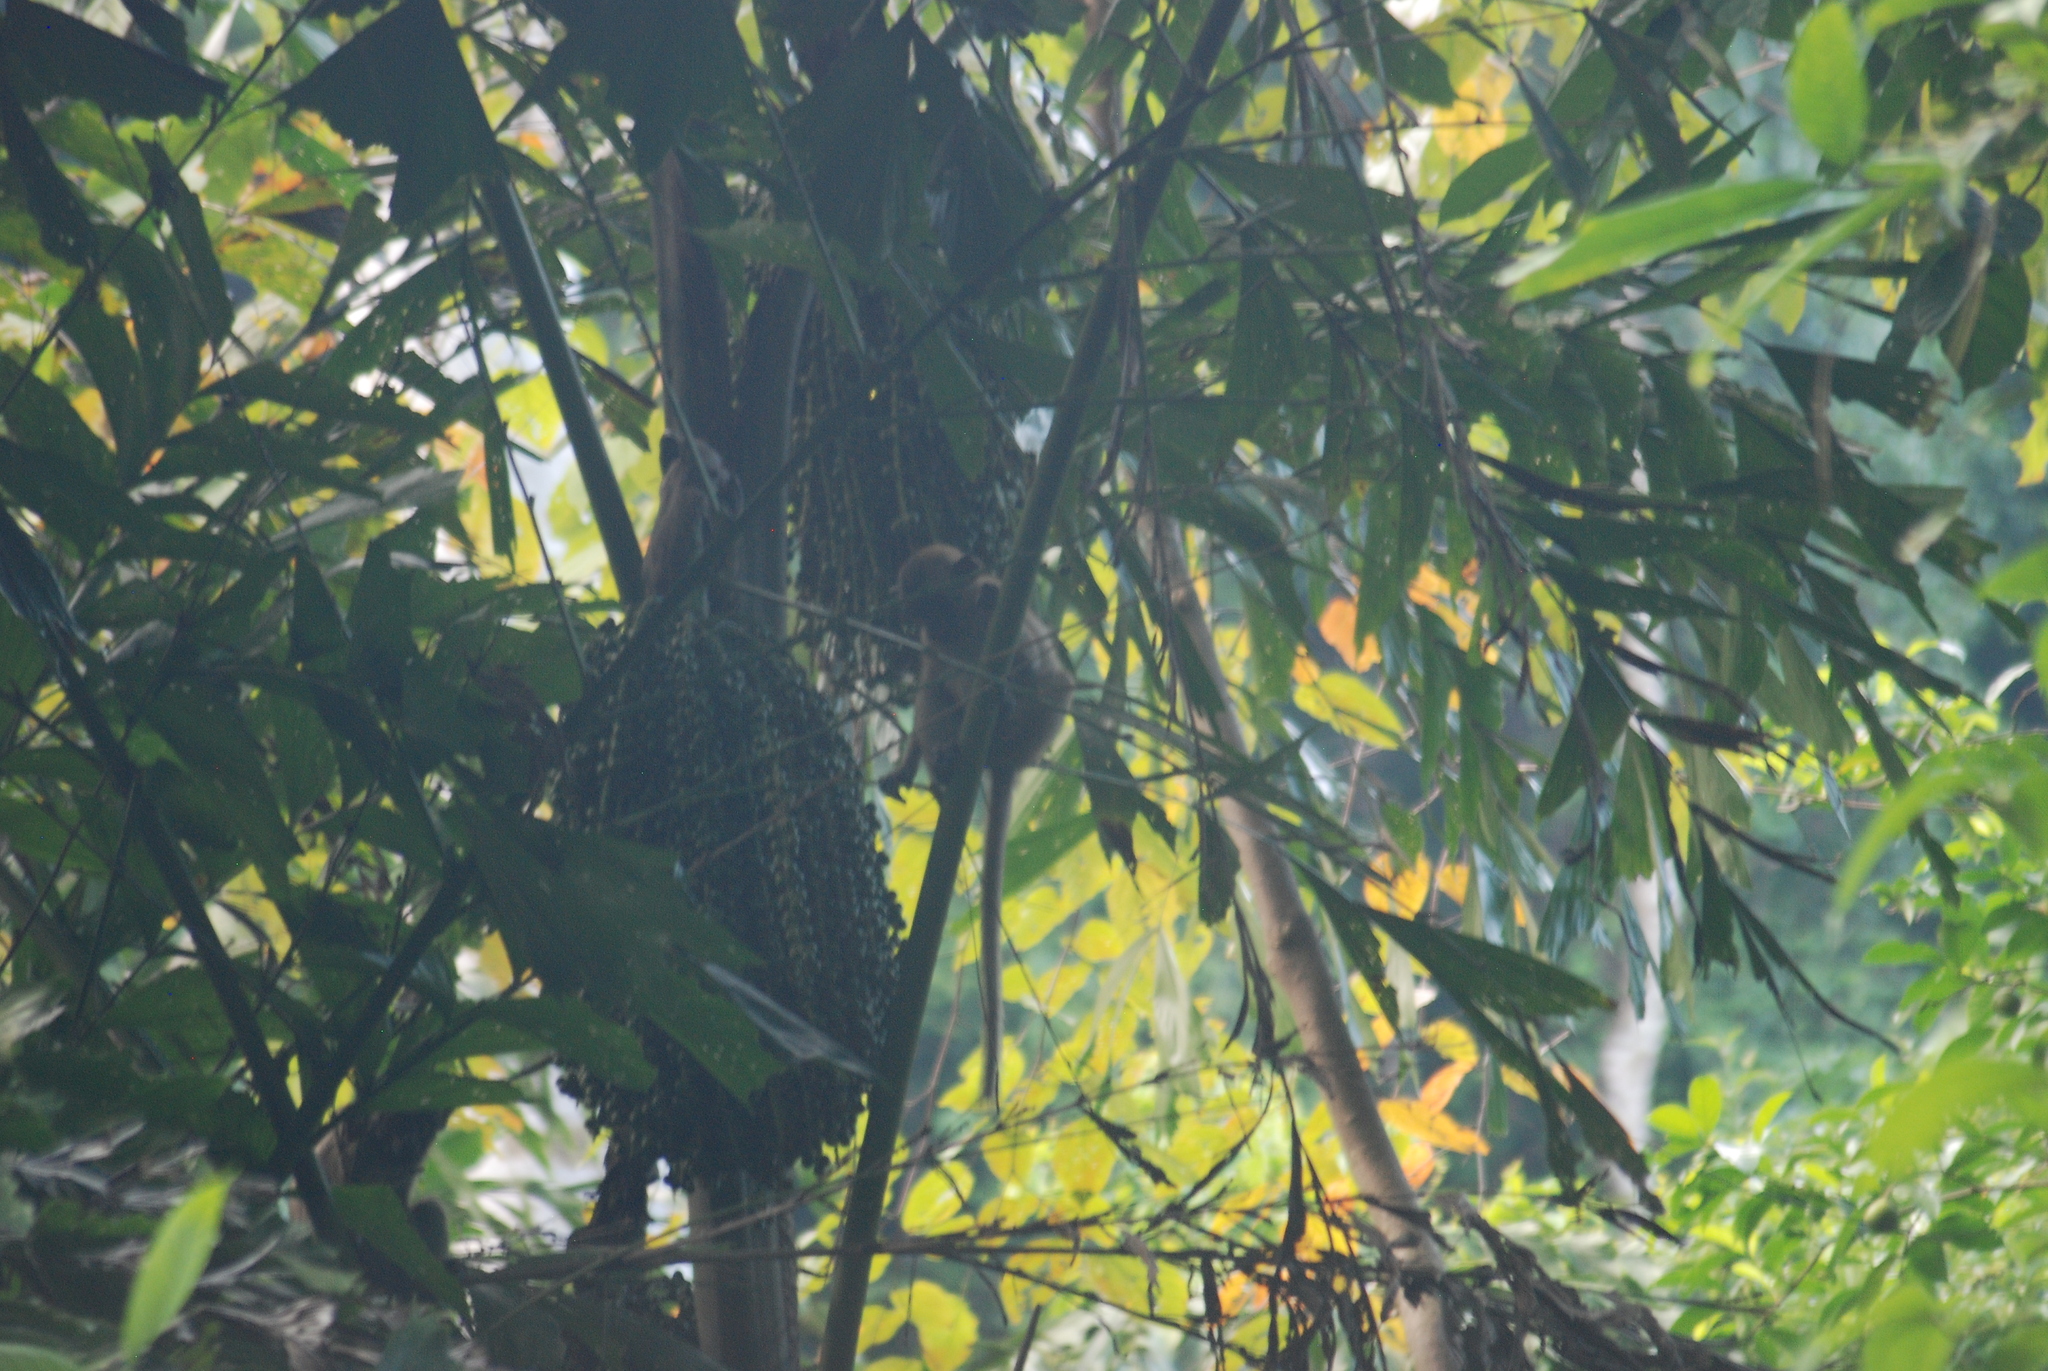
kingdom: Animalia
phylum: Chordata
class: Mammalia
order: Primates
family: Cercopithecidae
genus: Macaca
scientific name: Macaca fascicularis
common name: Crab-eating macaque
